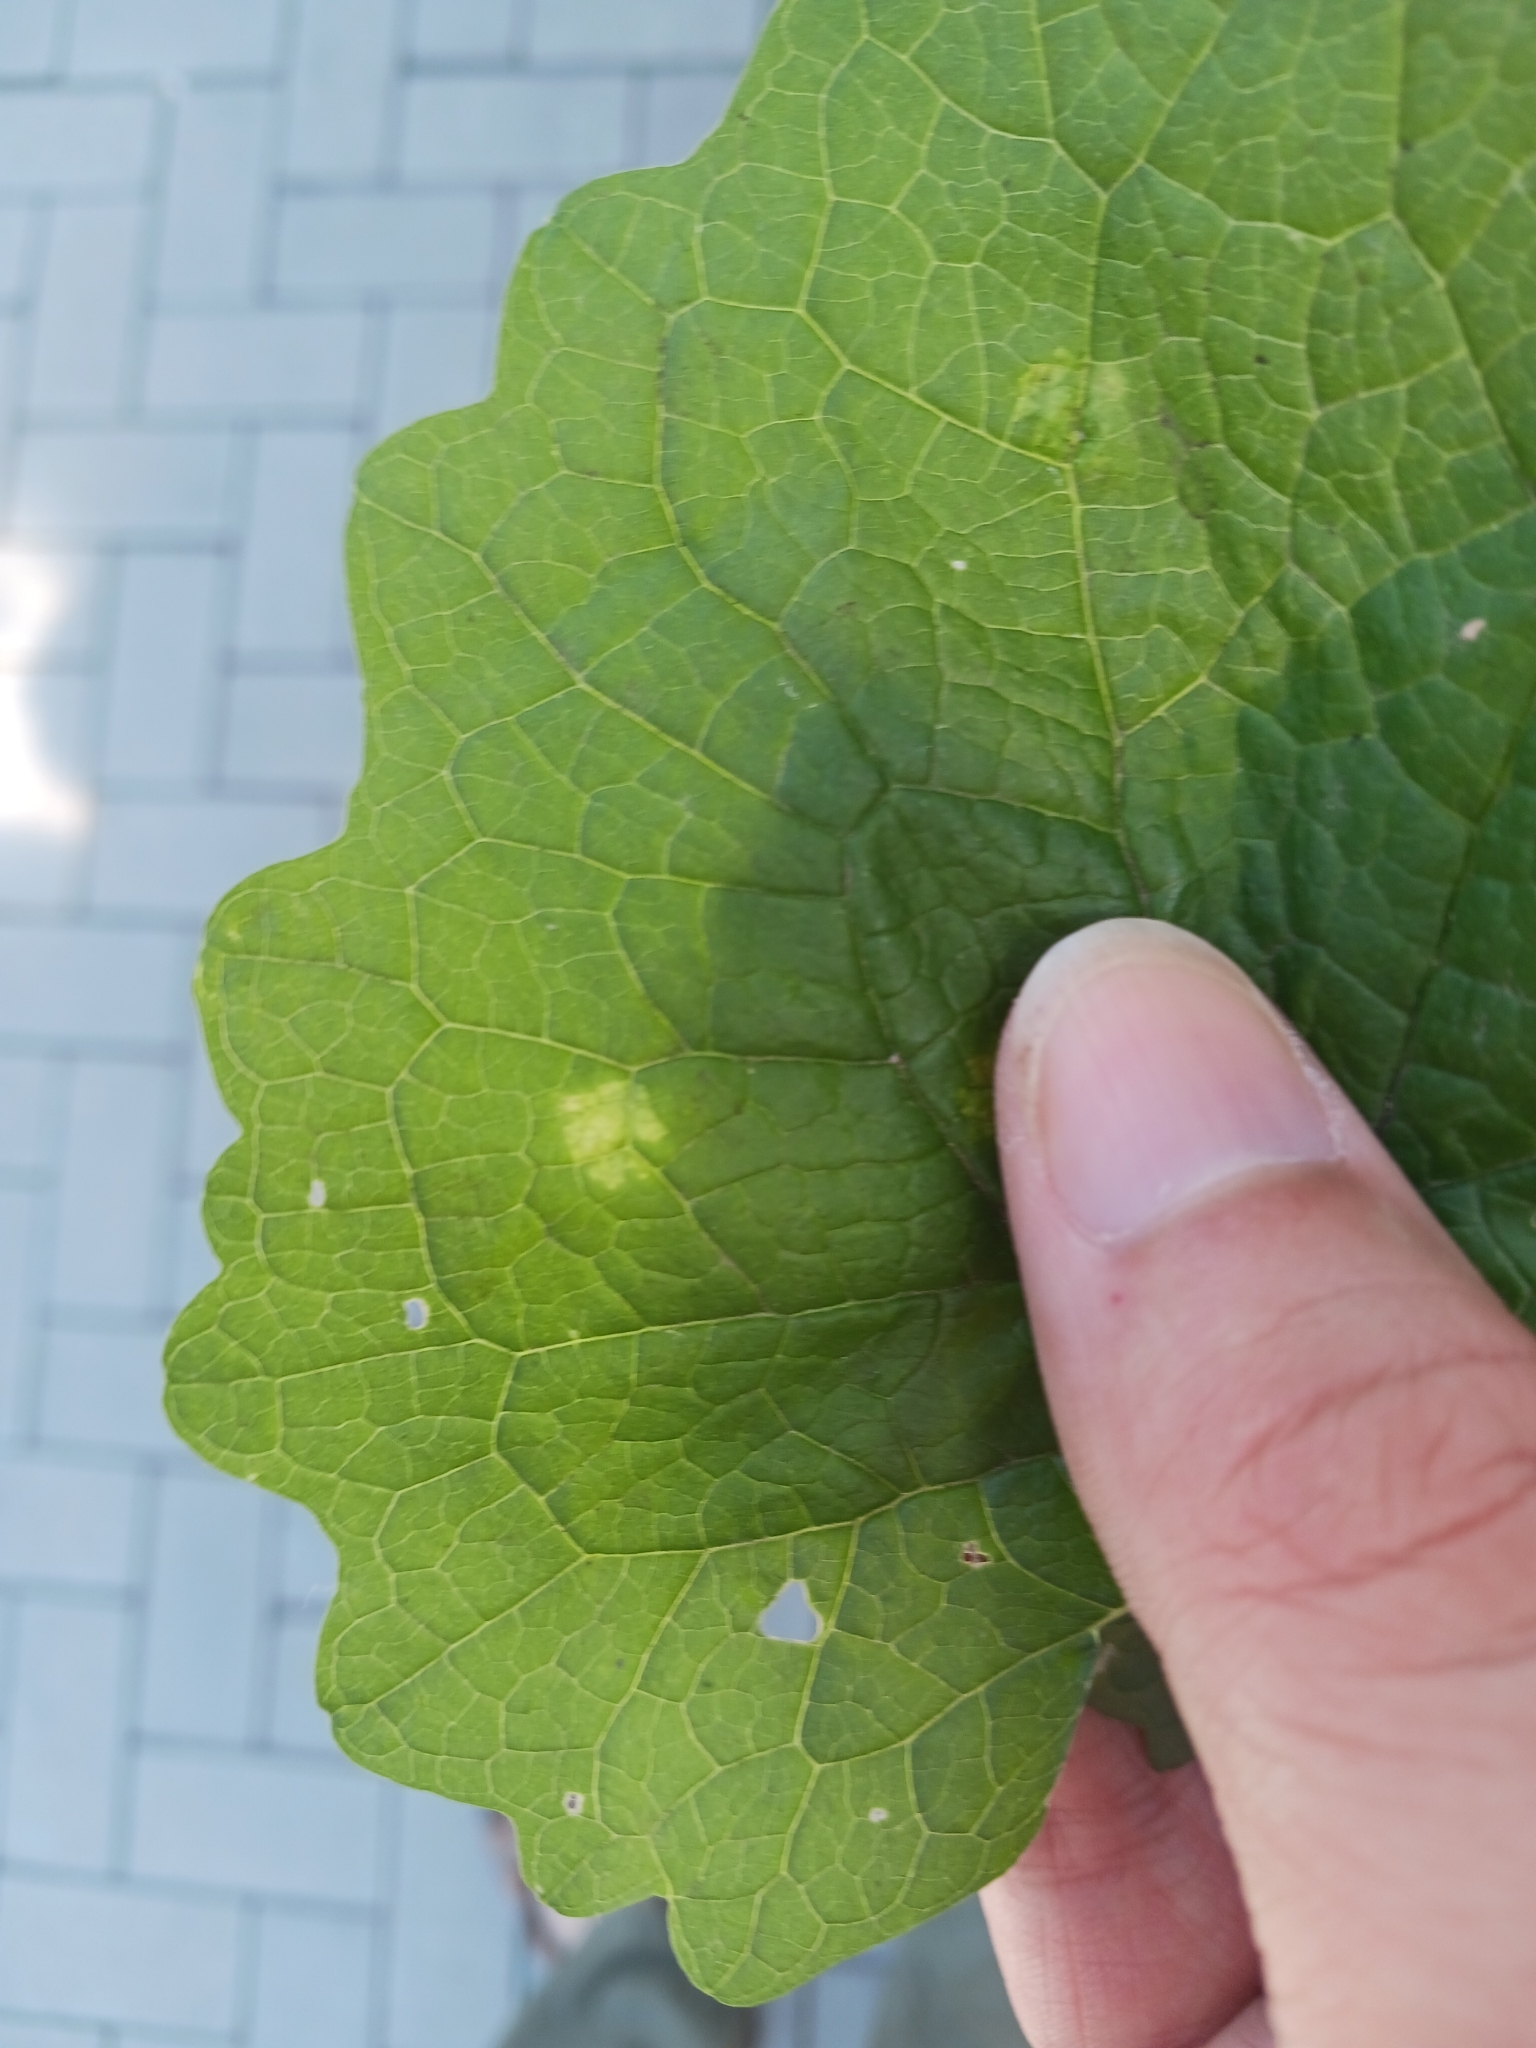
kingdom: Chromista
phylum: Oomycota
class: Peronosporea
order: Peronosporales
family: Peronosporaceae
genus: Hyaloperonospora
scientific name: Hyaloperonospora niessliana
